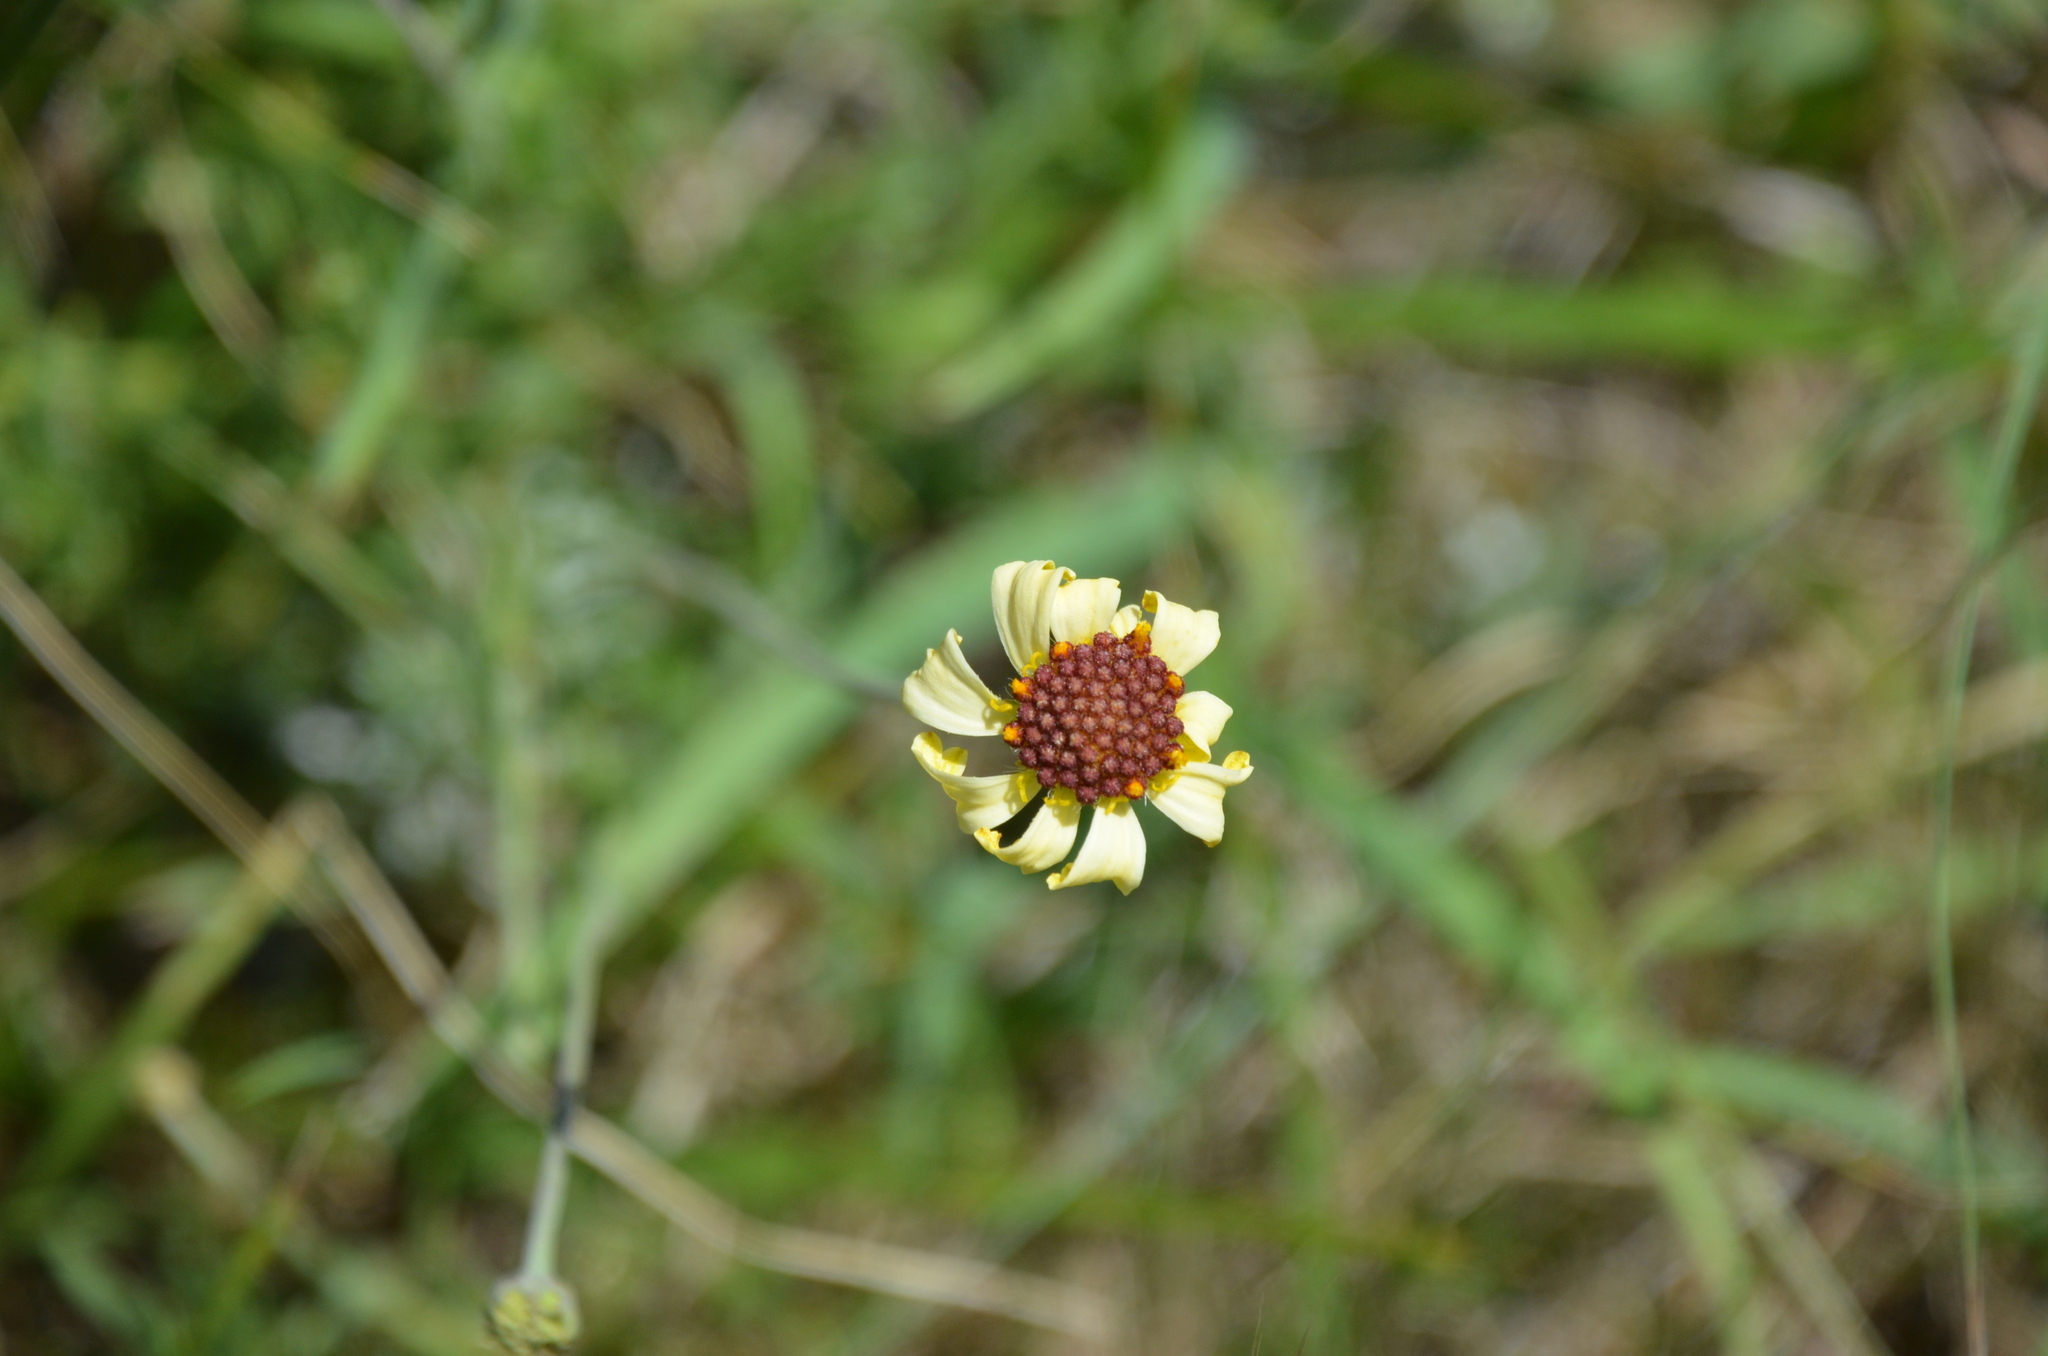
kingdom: Plantae
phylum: Tracheophyta
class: Magnoliopsida
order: Asterales
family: Asteraceae
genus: Helenium
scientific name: Helenium uniflorum
